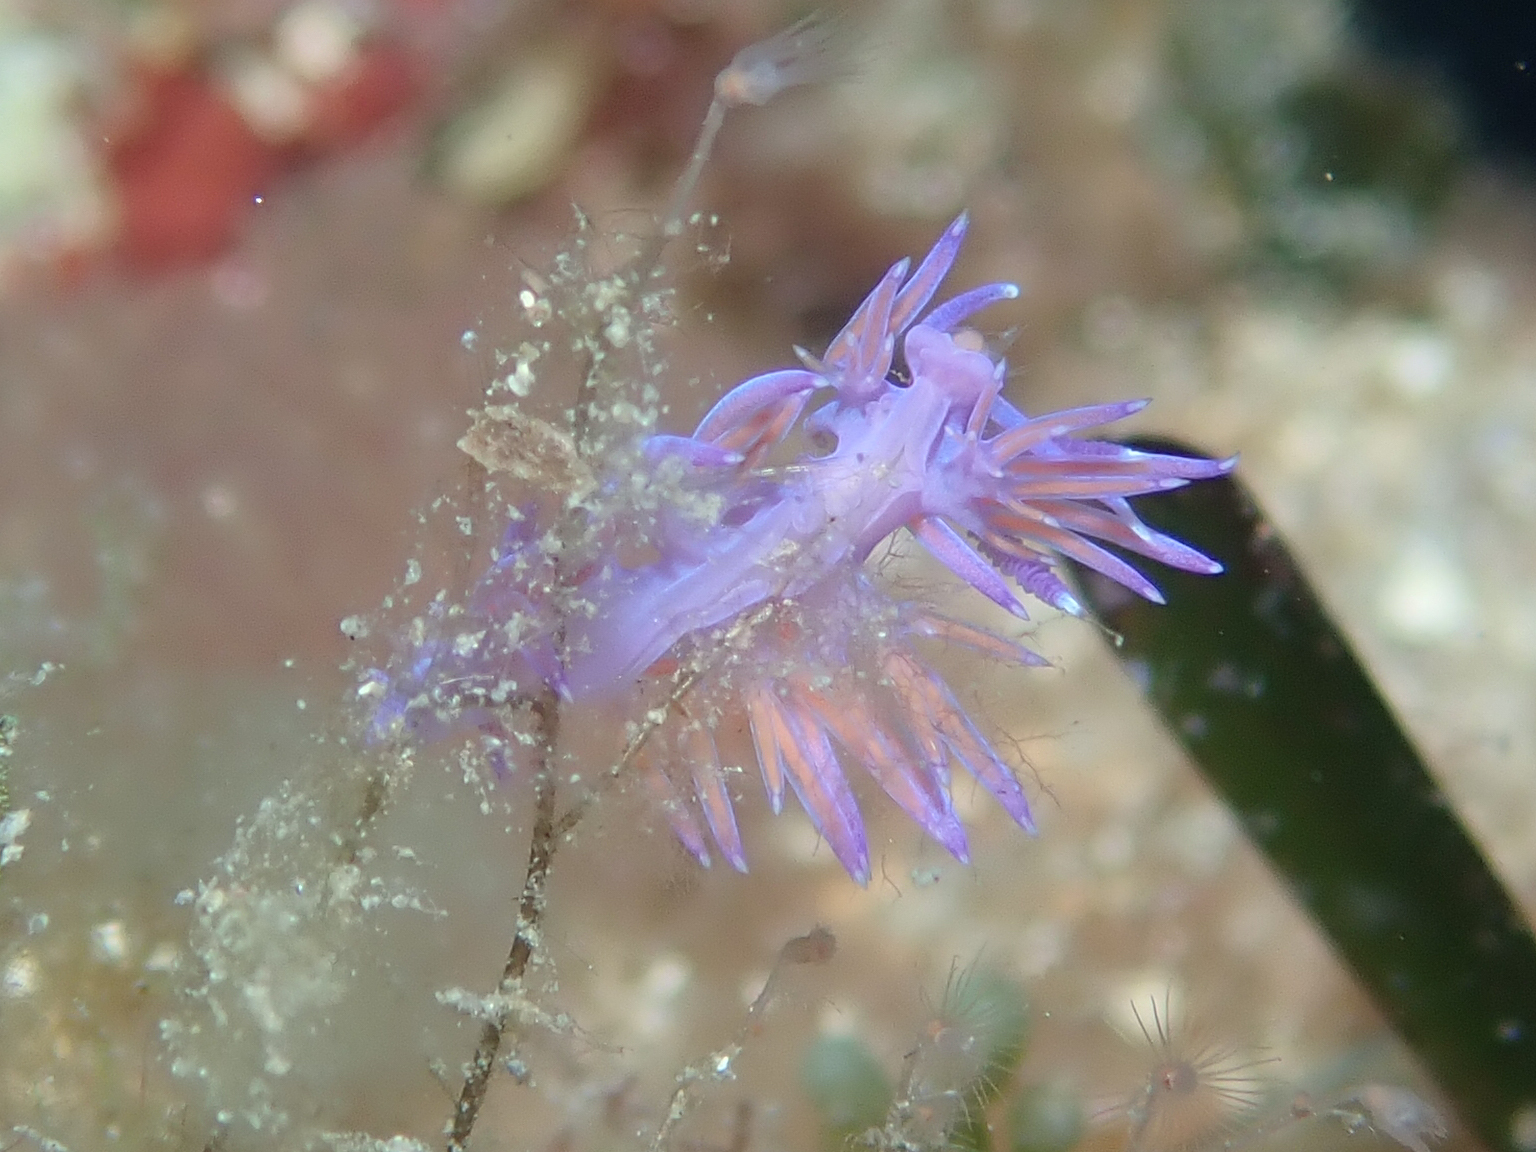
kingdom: Animalia
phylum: Mollusca
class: Gastropoda
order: Nudibranchia
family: Flabellinidae
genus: Flabellina
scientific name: Flabellina affinis
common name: Mediterranean violet aeolid
